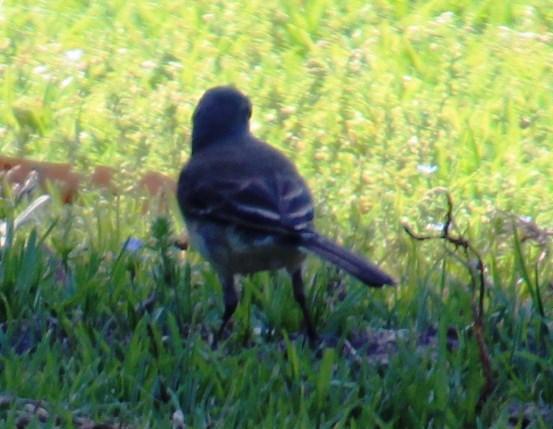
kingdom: Animalia
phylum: Chordata
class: Aves
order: Passeriformes
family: Motacillidae
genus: Motacilla
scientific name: Motacilla capensis
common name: Cape wagtail
